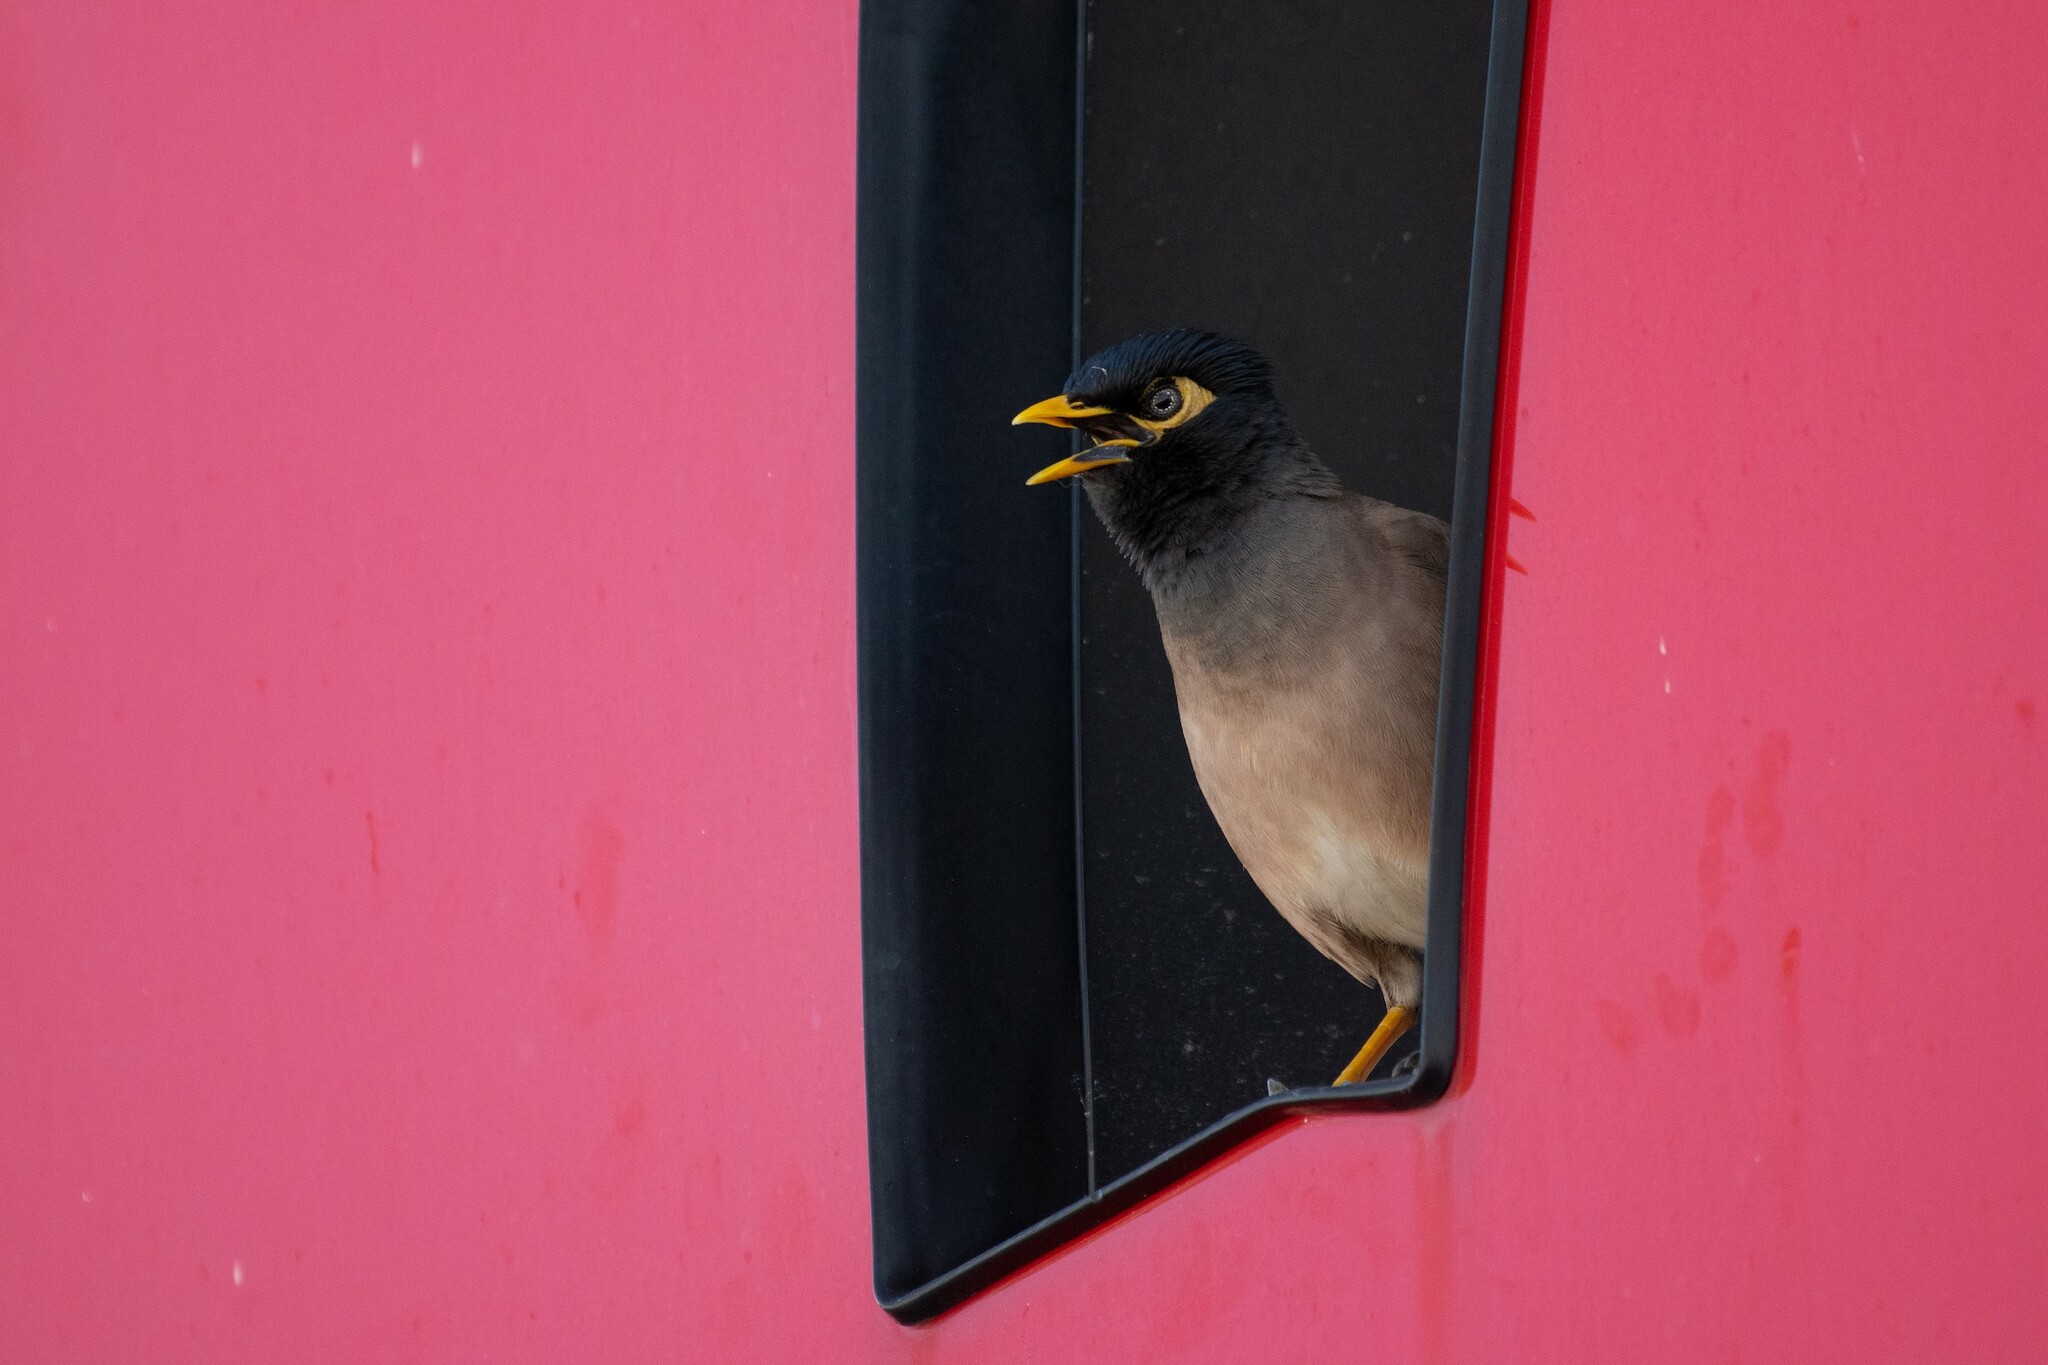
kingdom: Animalia
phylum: Chordata
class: Aves
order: Passeriformes
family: Sturnidae
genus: Acridotheres
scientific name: Acridotheres tristis
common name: Common myna
